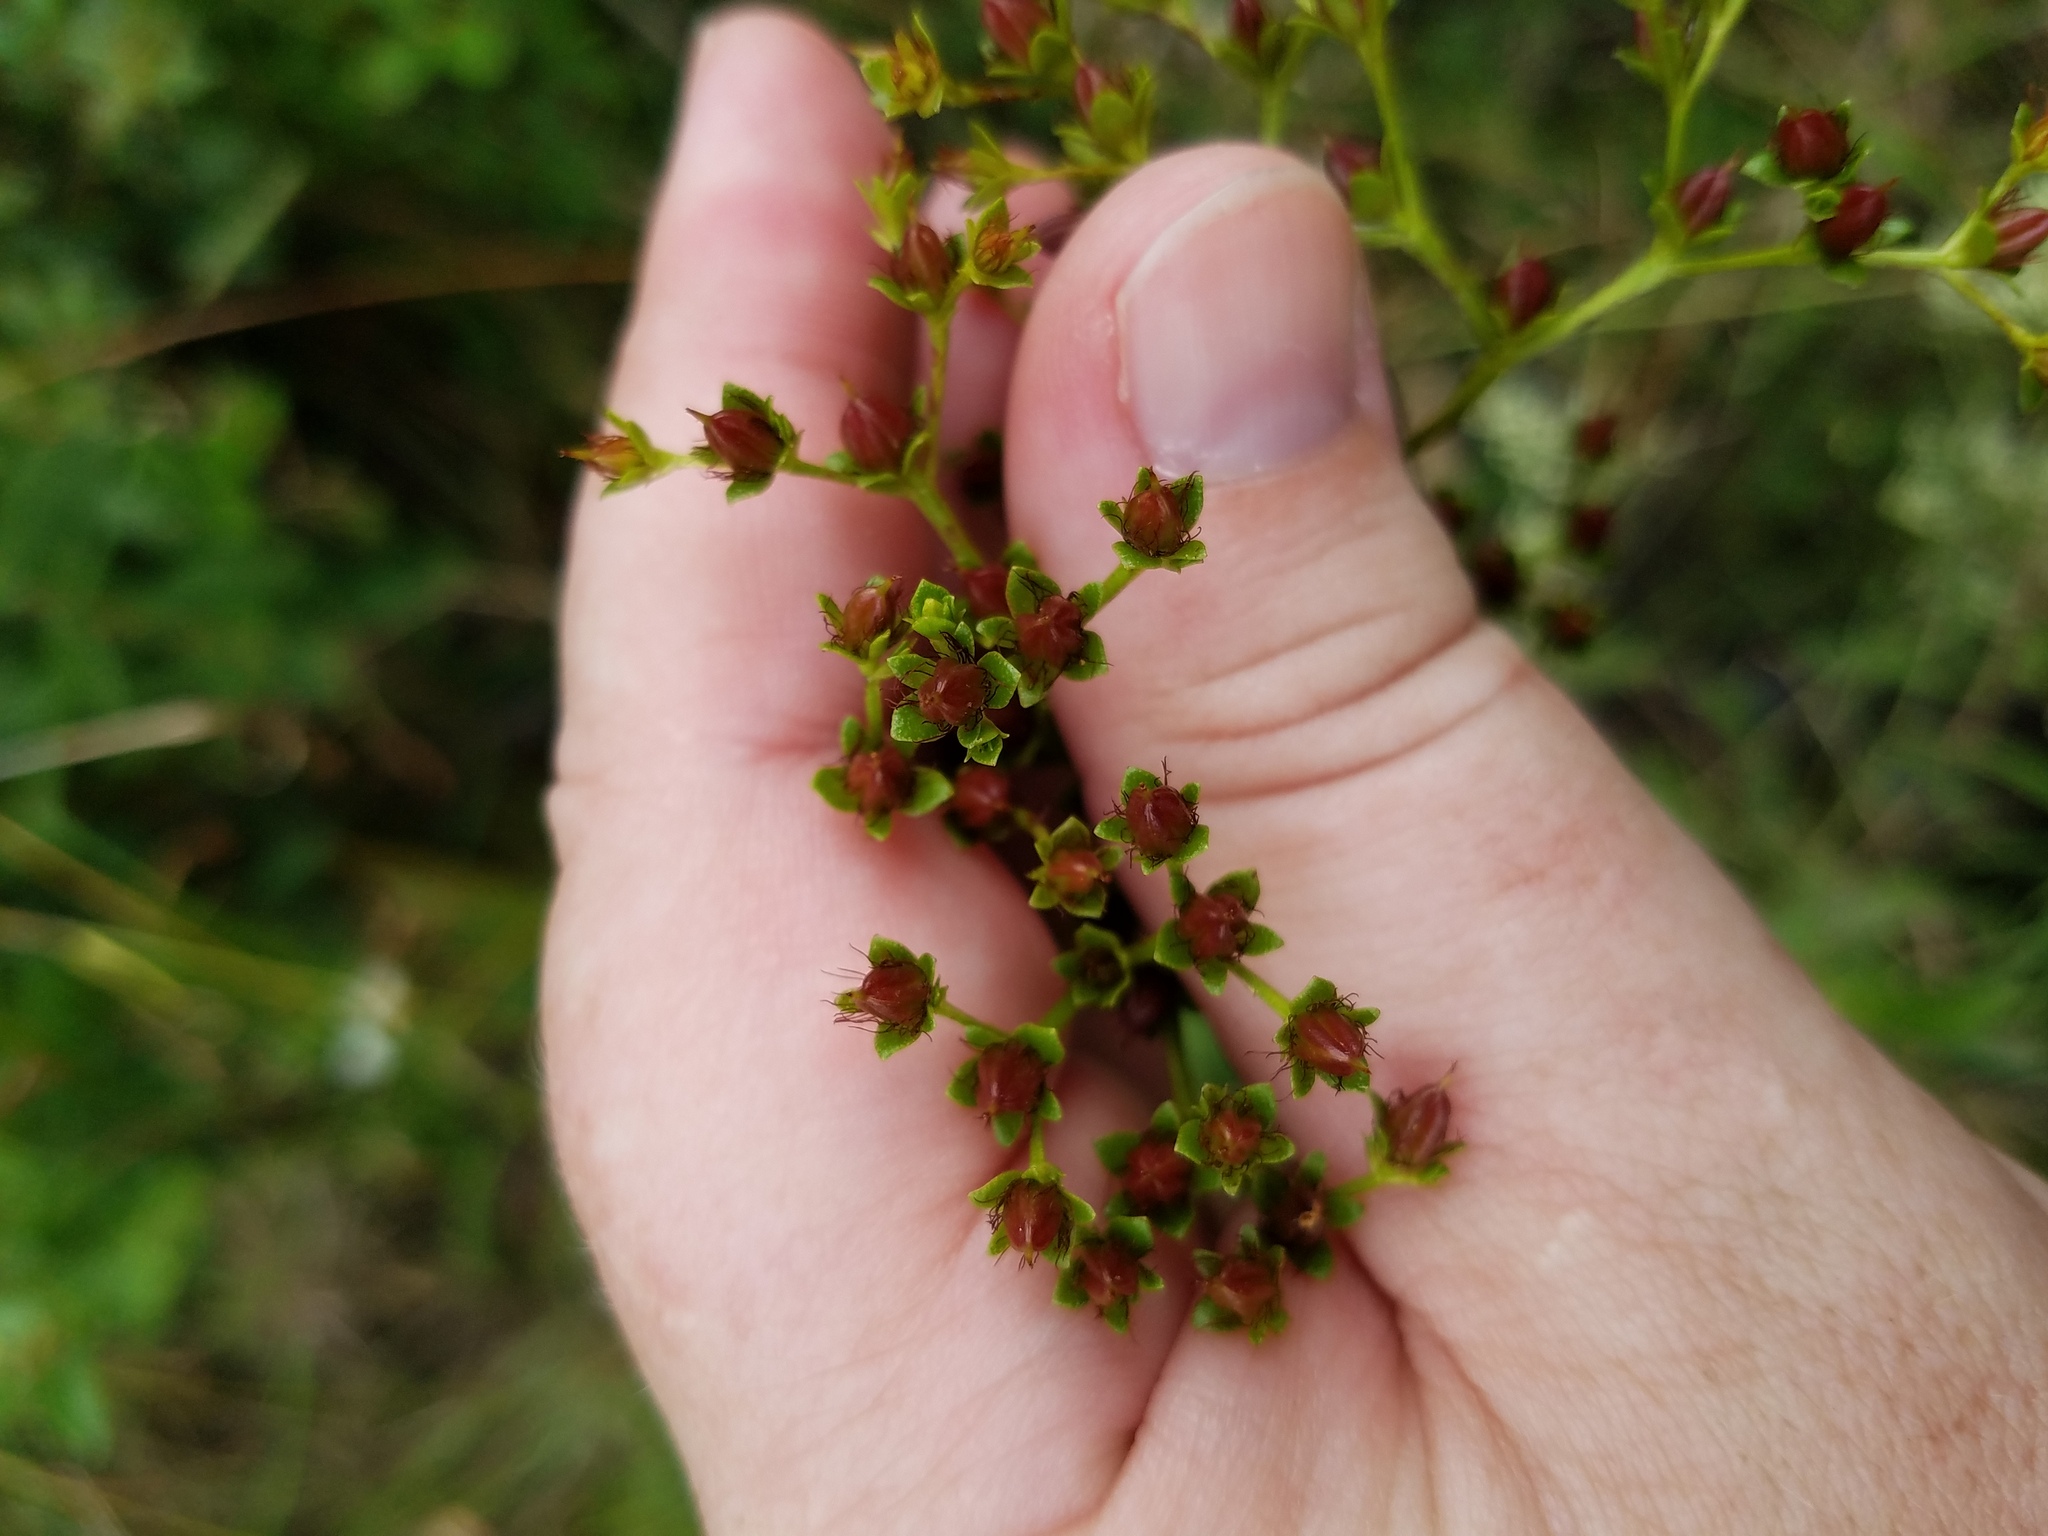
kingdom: Plantae
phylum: Tracheophyta
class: Magnoliopsida
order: Malpighiales
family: Hypericaceae
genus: Hypericum
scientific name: Hypericum cistifolium
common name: Round-pod st. john's-wort
